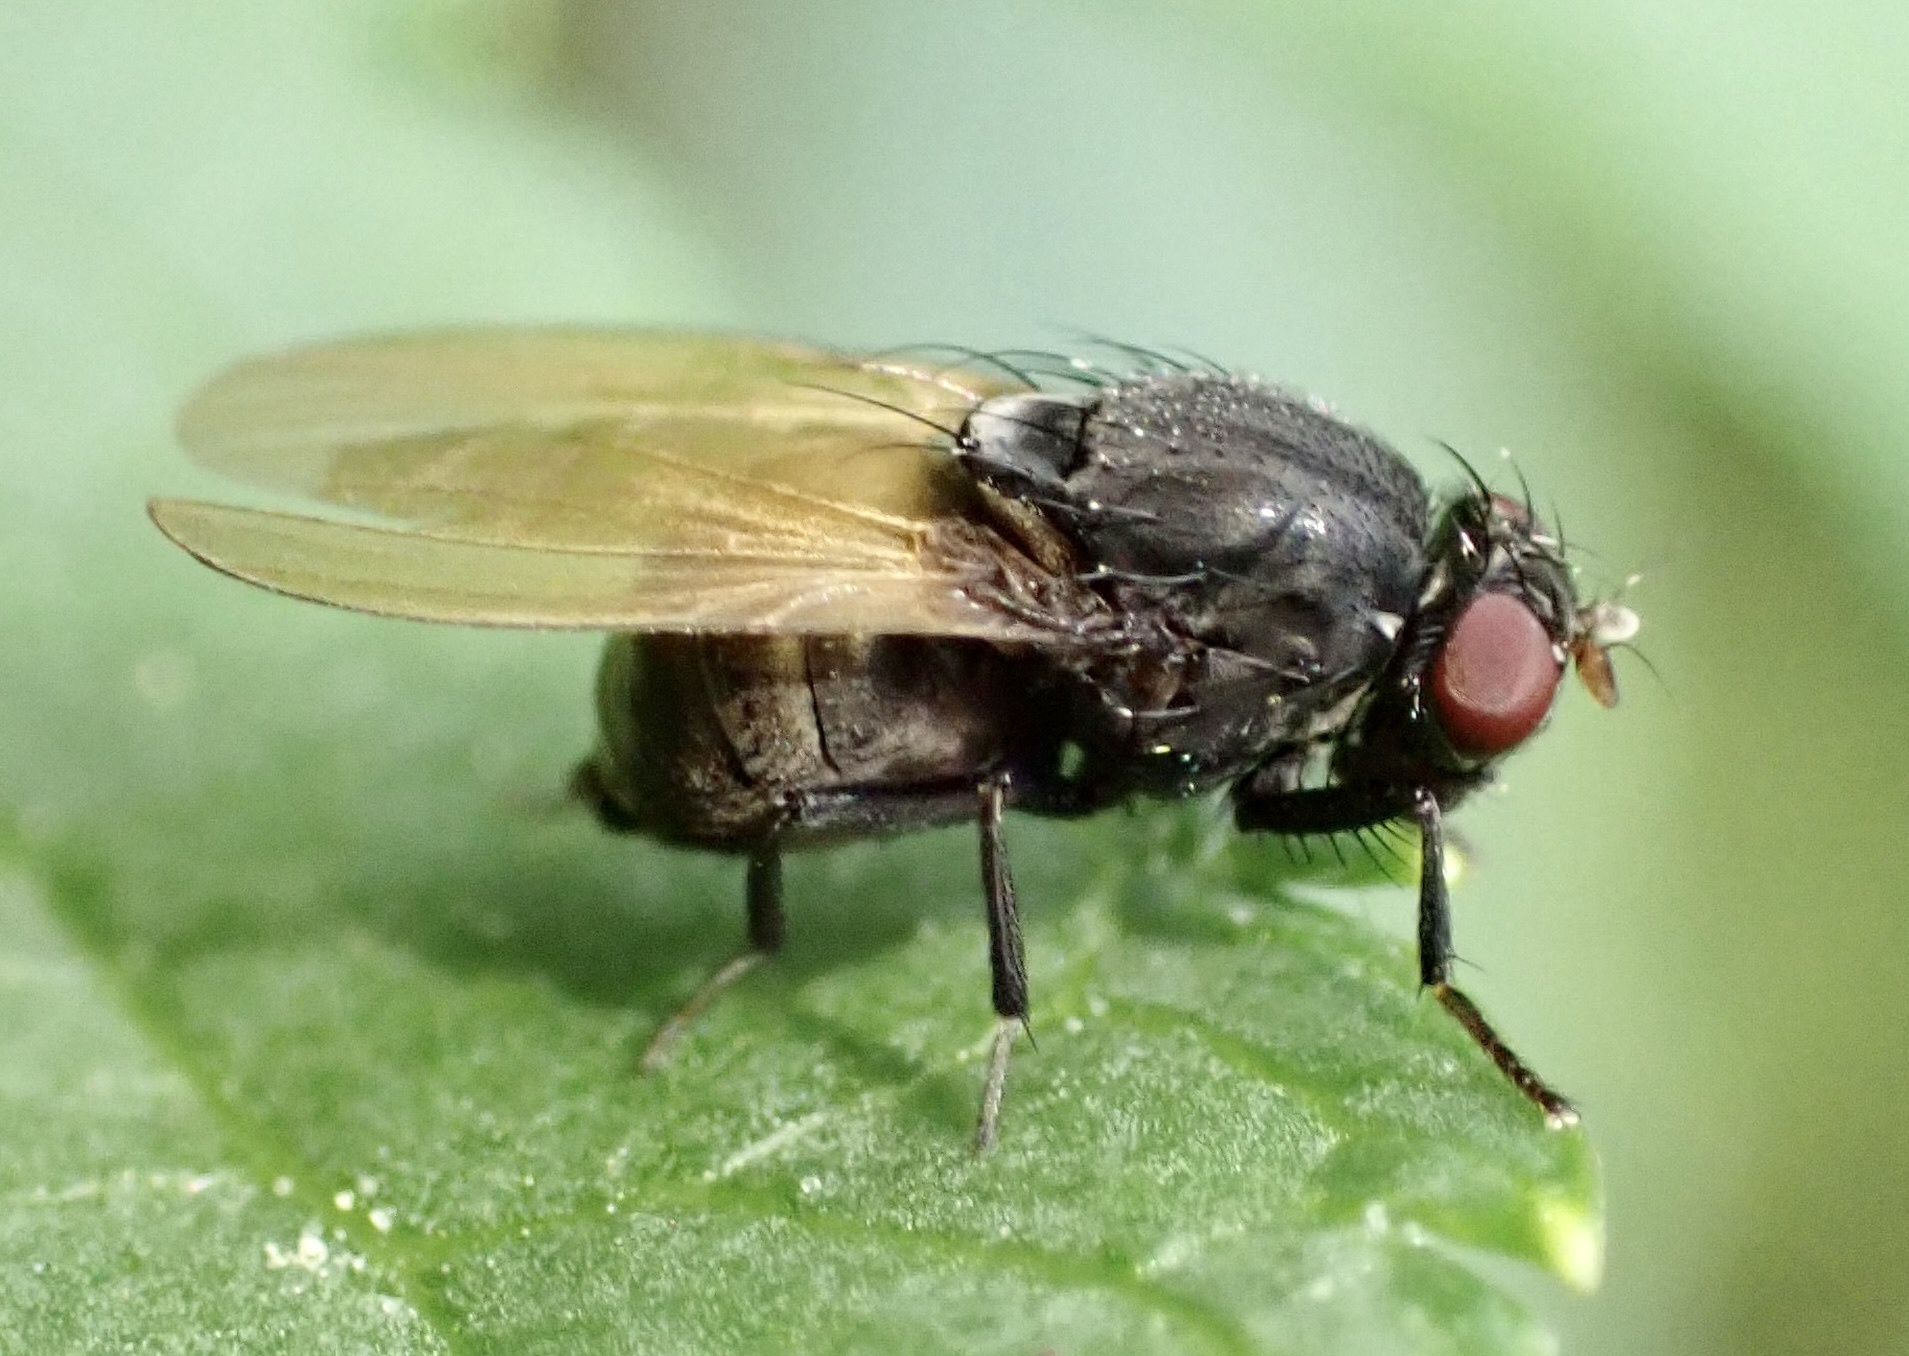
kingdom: Animalia
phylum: Arthropoda
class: Insecta
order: Diptera
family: Lauxaniidae
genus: Minettia
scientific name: Minettia longipennis
